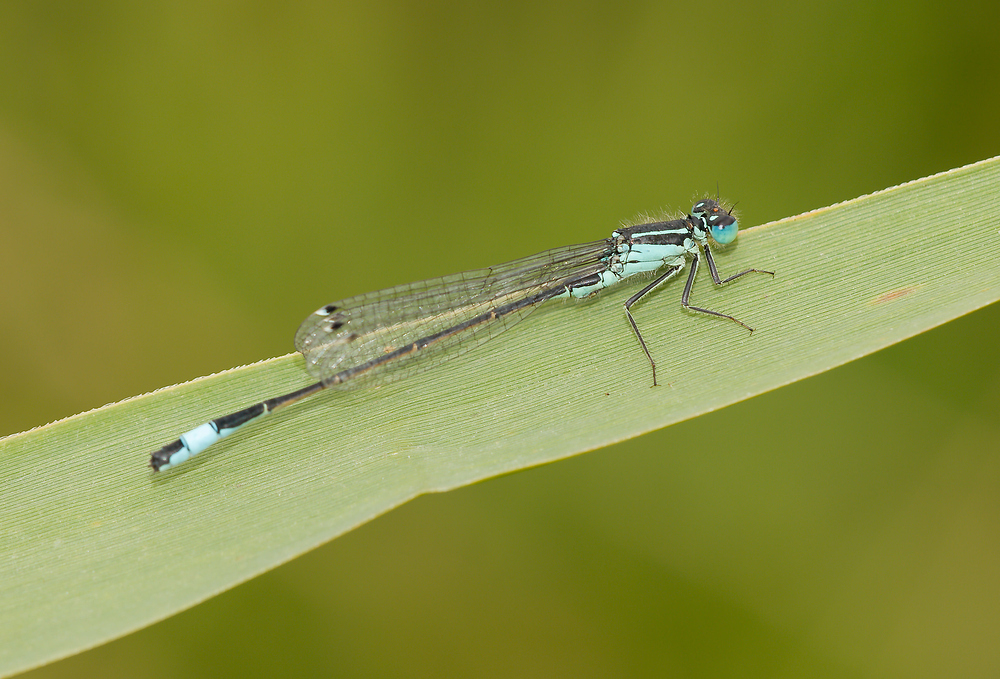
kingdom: Animalia
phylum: Arthropoda
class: Insecta
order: Odonata
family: Coenagrionidae
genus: Ischnura
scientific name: Ischnura elegans
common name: Blue-tailed damselfly
